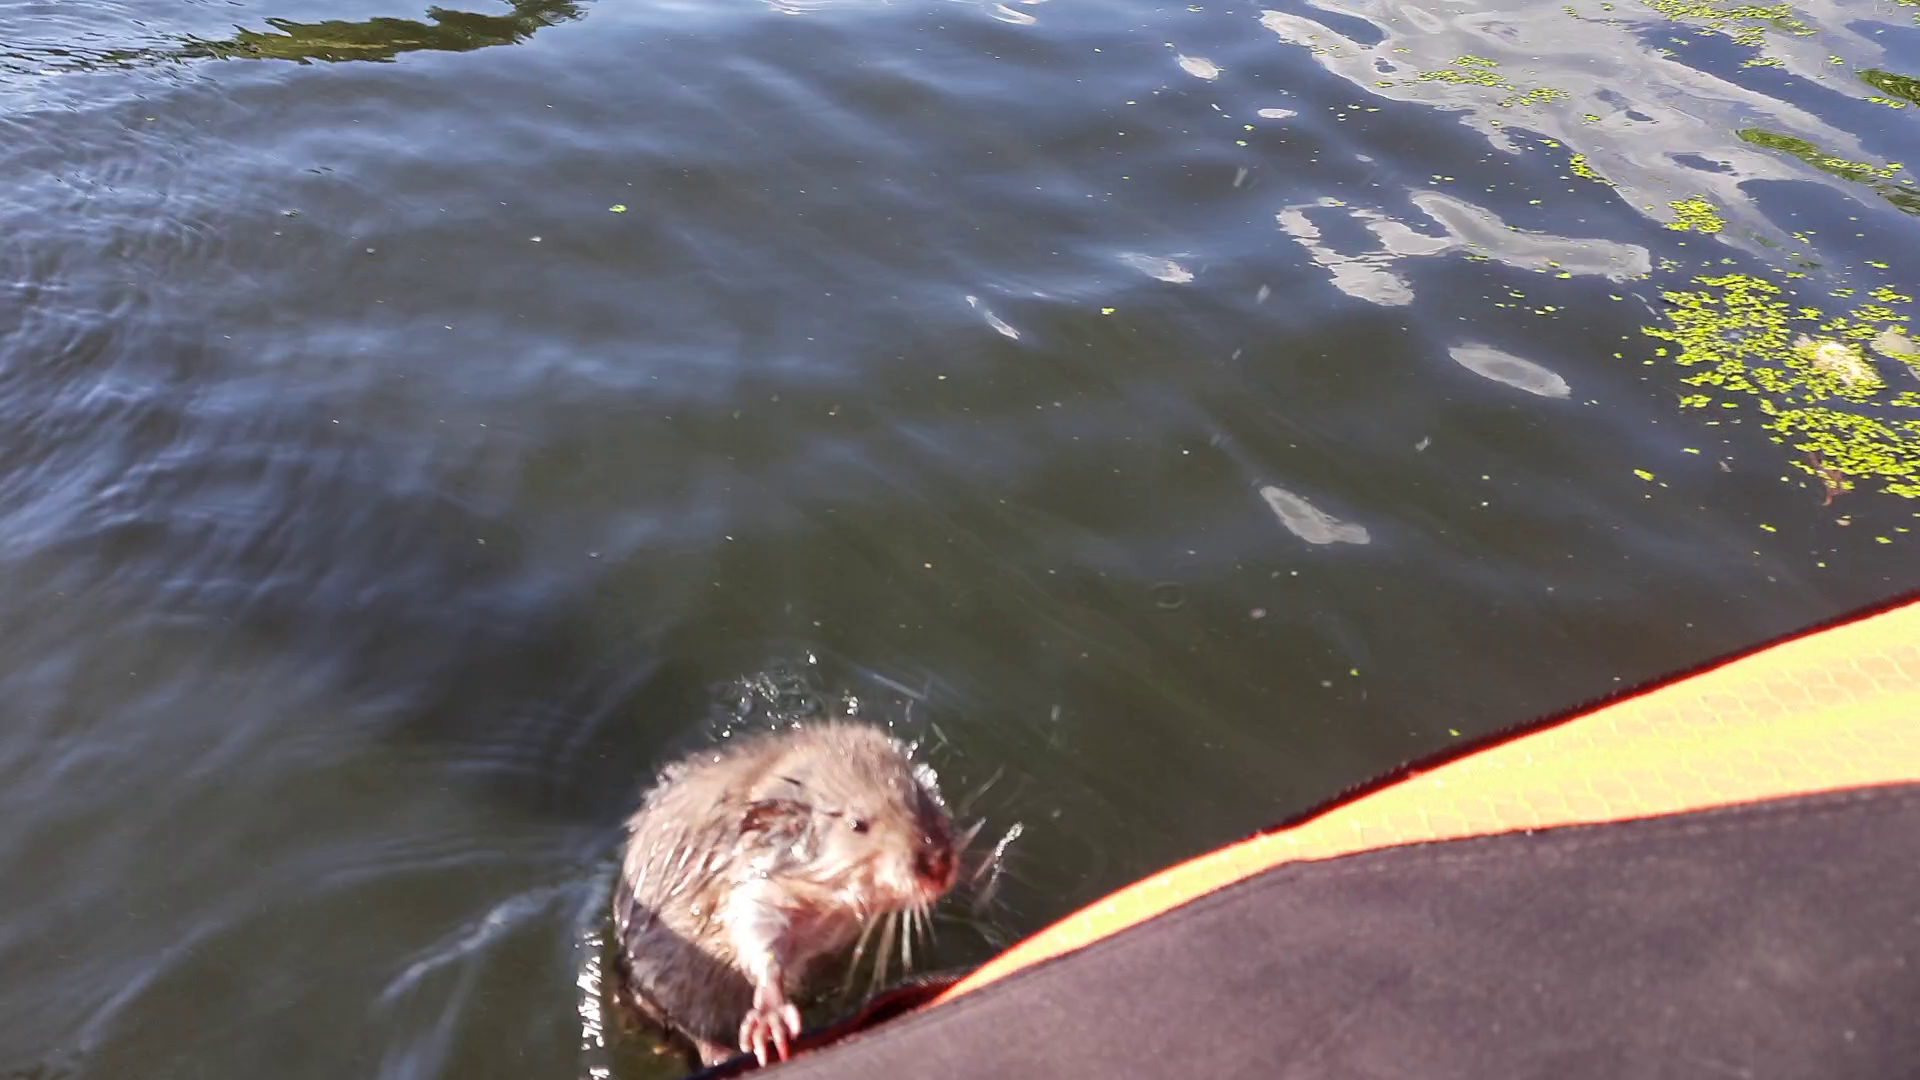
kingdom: Animalia
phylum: Chordata
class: Mammalia
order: Rodentia
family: Cricetidae
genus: Ondatra
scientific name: Ondatra zibethicus
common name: Muskrat
